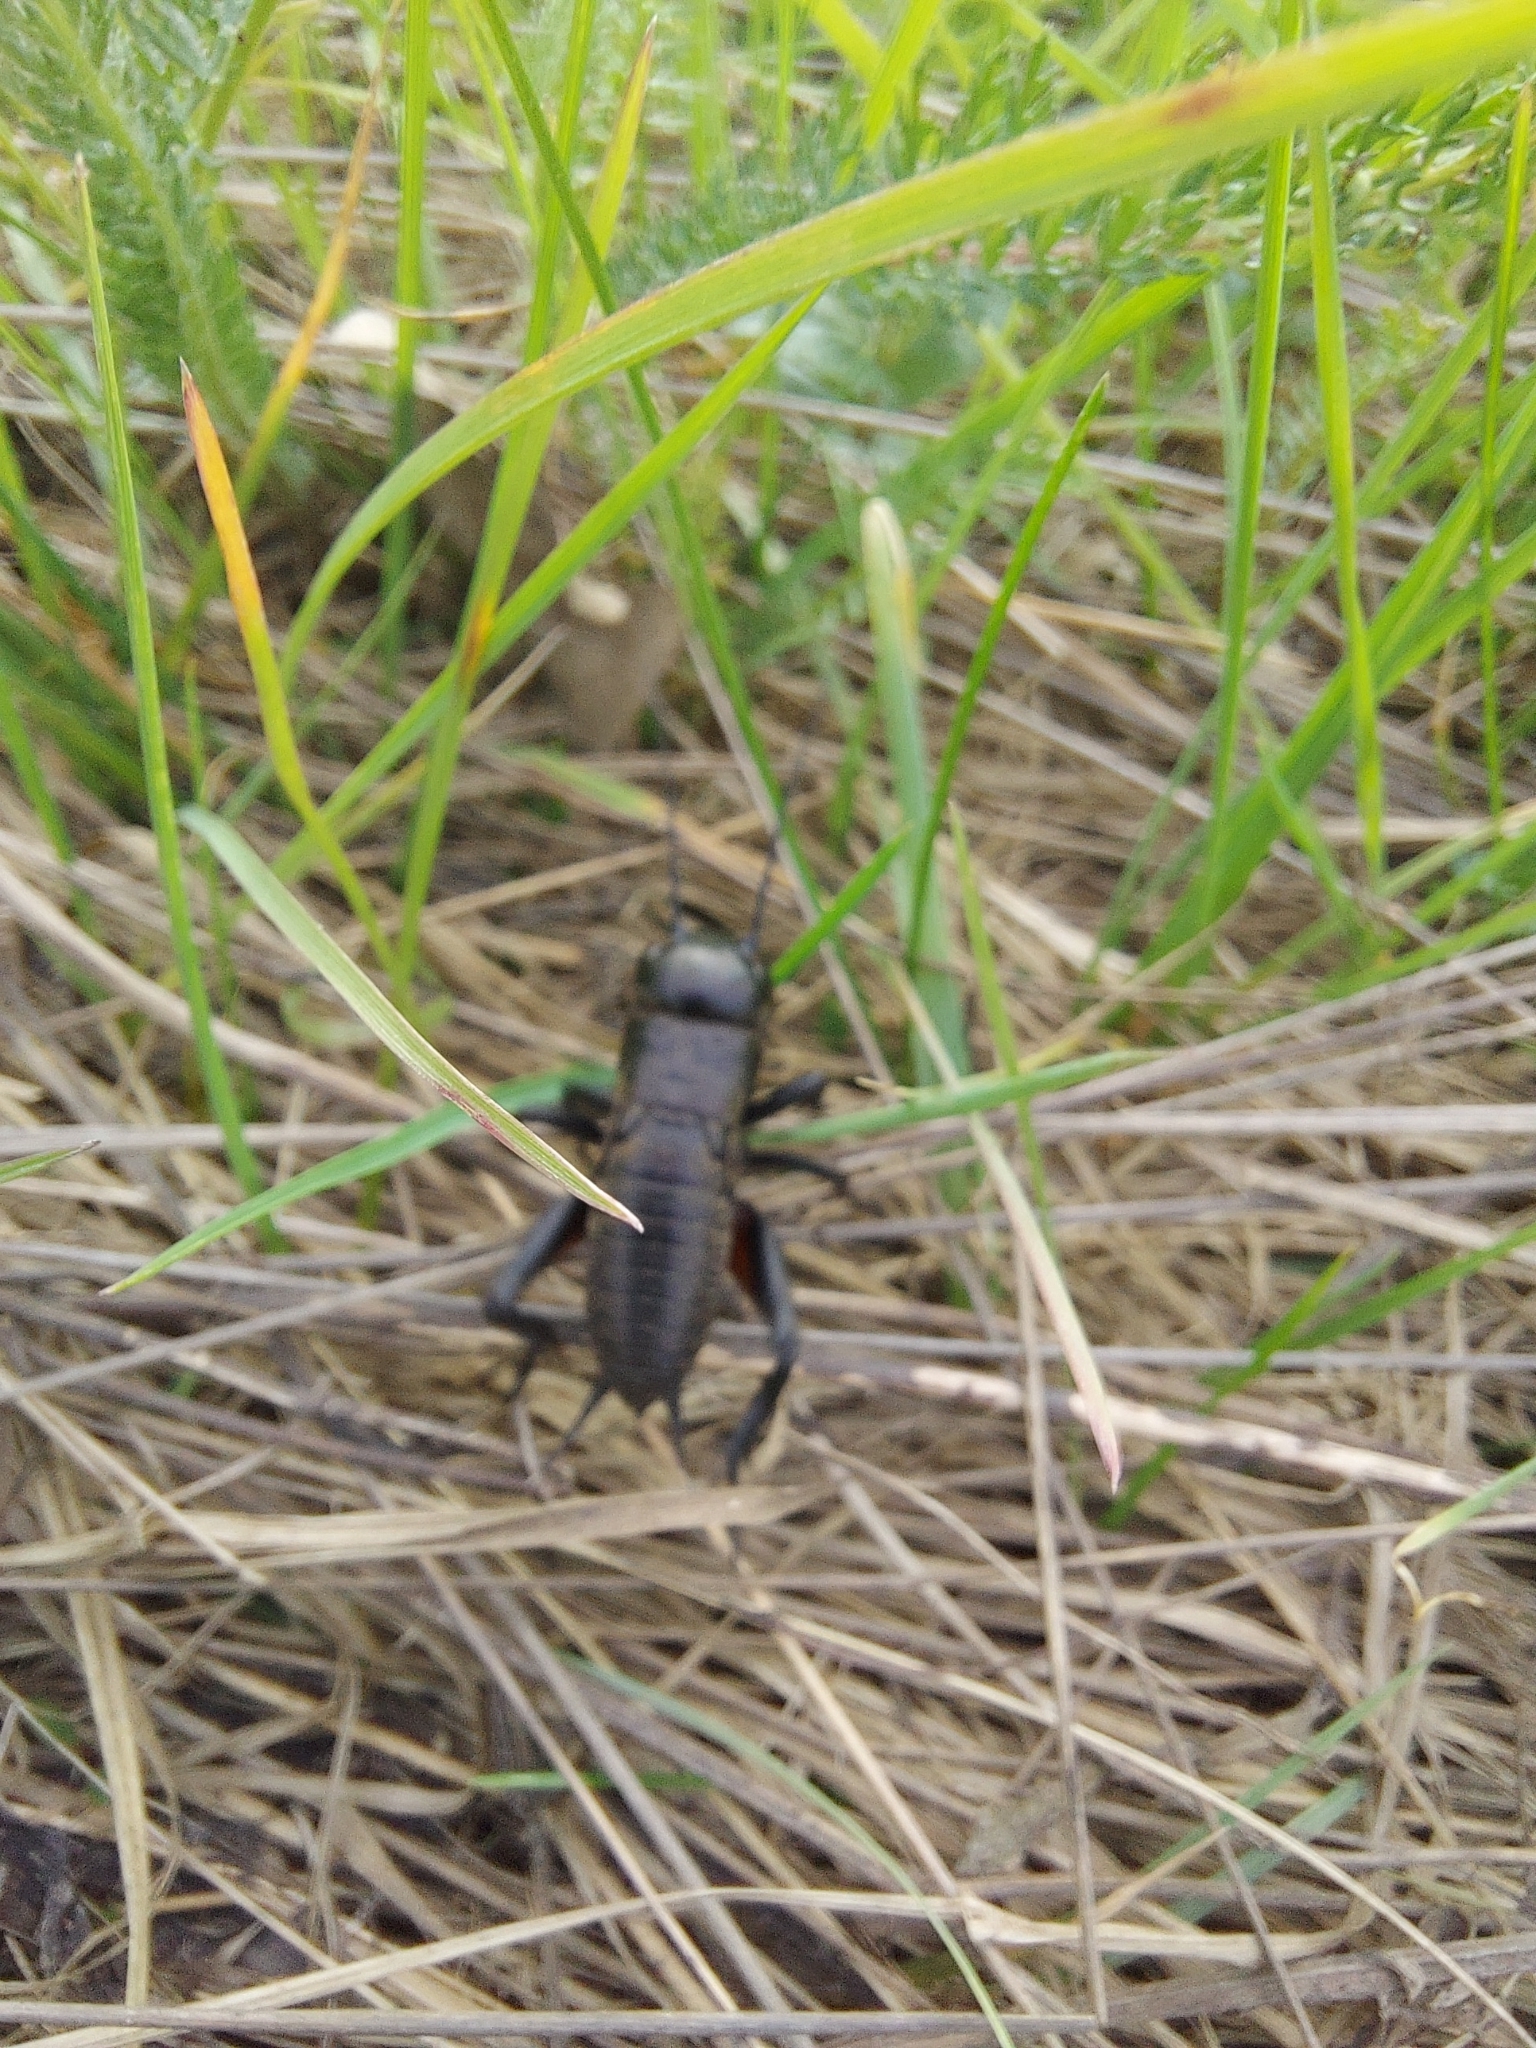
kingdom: Animalia
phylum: Arthropoda
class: Insecta
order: Orthoptera
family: Gryllidae
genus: Gryllus
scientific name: Gryllus campestris
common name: Field cricket
